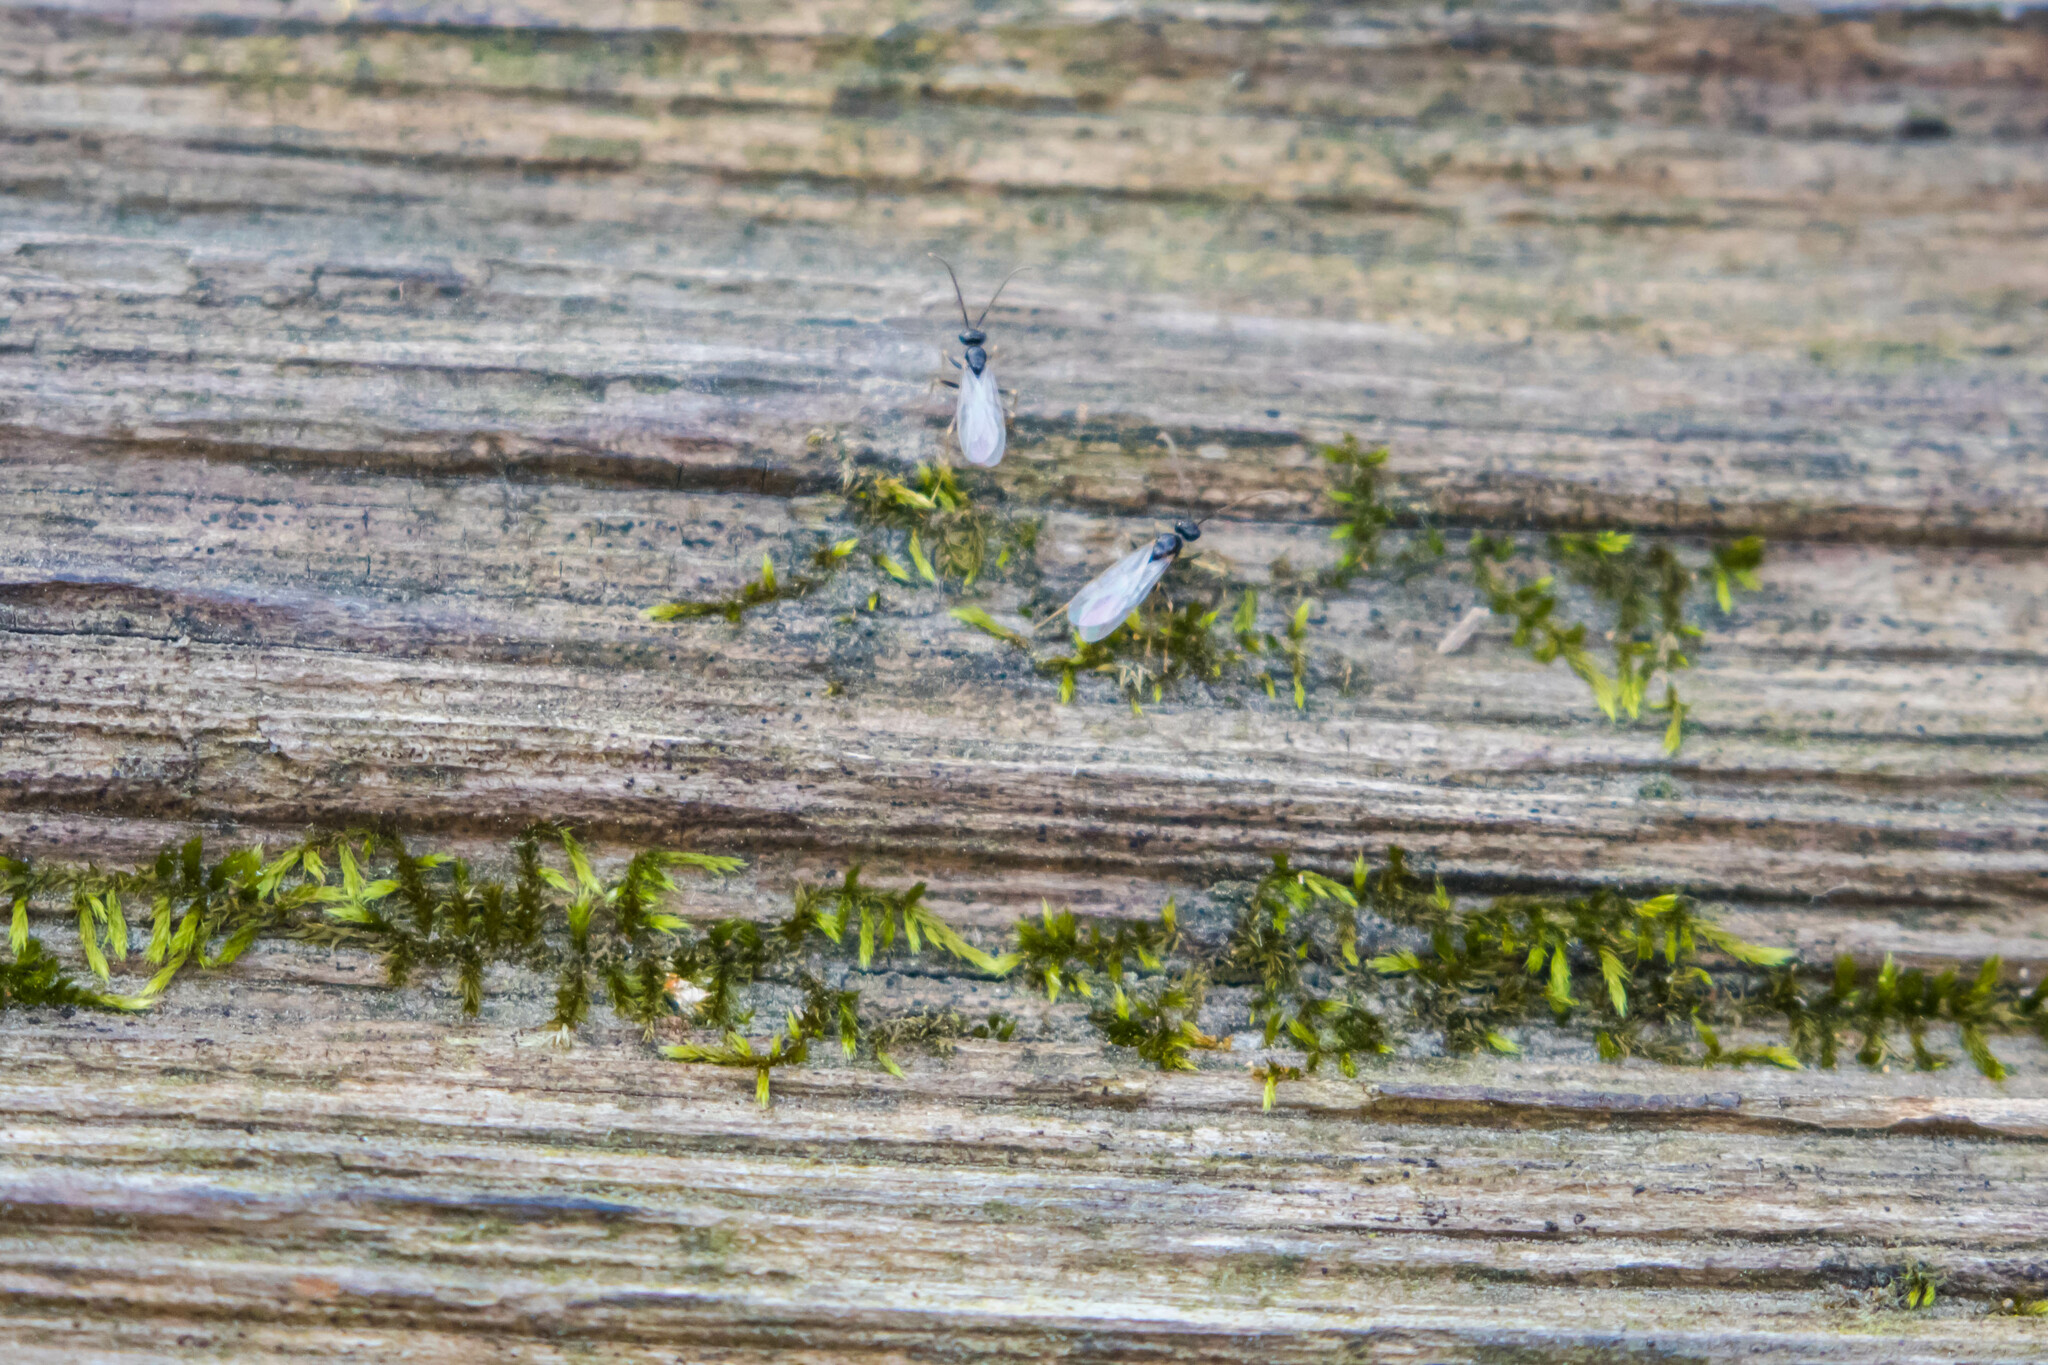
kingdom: Animalia
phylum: Arthropoda
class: Insecta
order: Hymenoptera
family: Formicidae
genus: Prenolepis
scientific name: Prenolepis imparis
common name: Small honey ant
